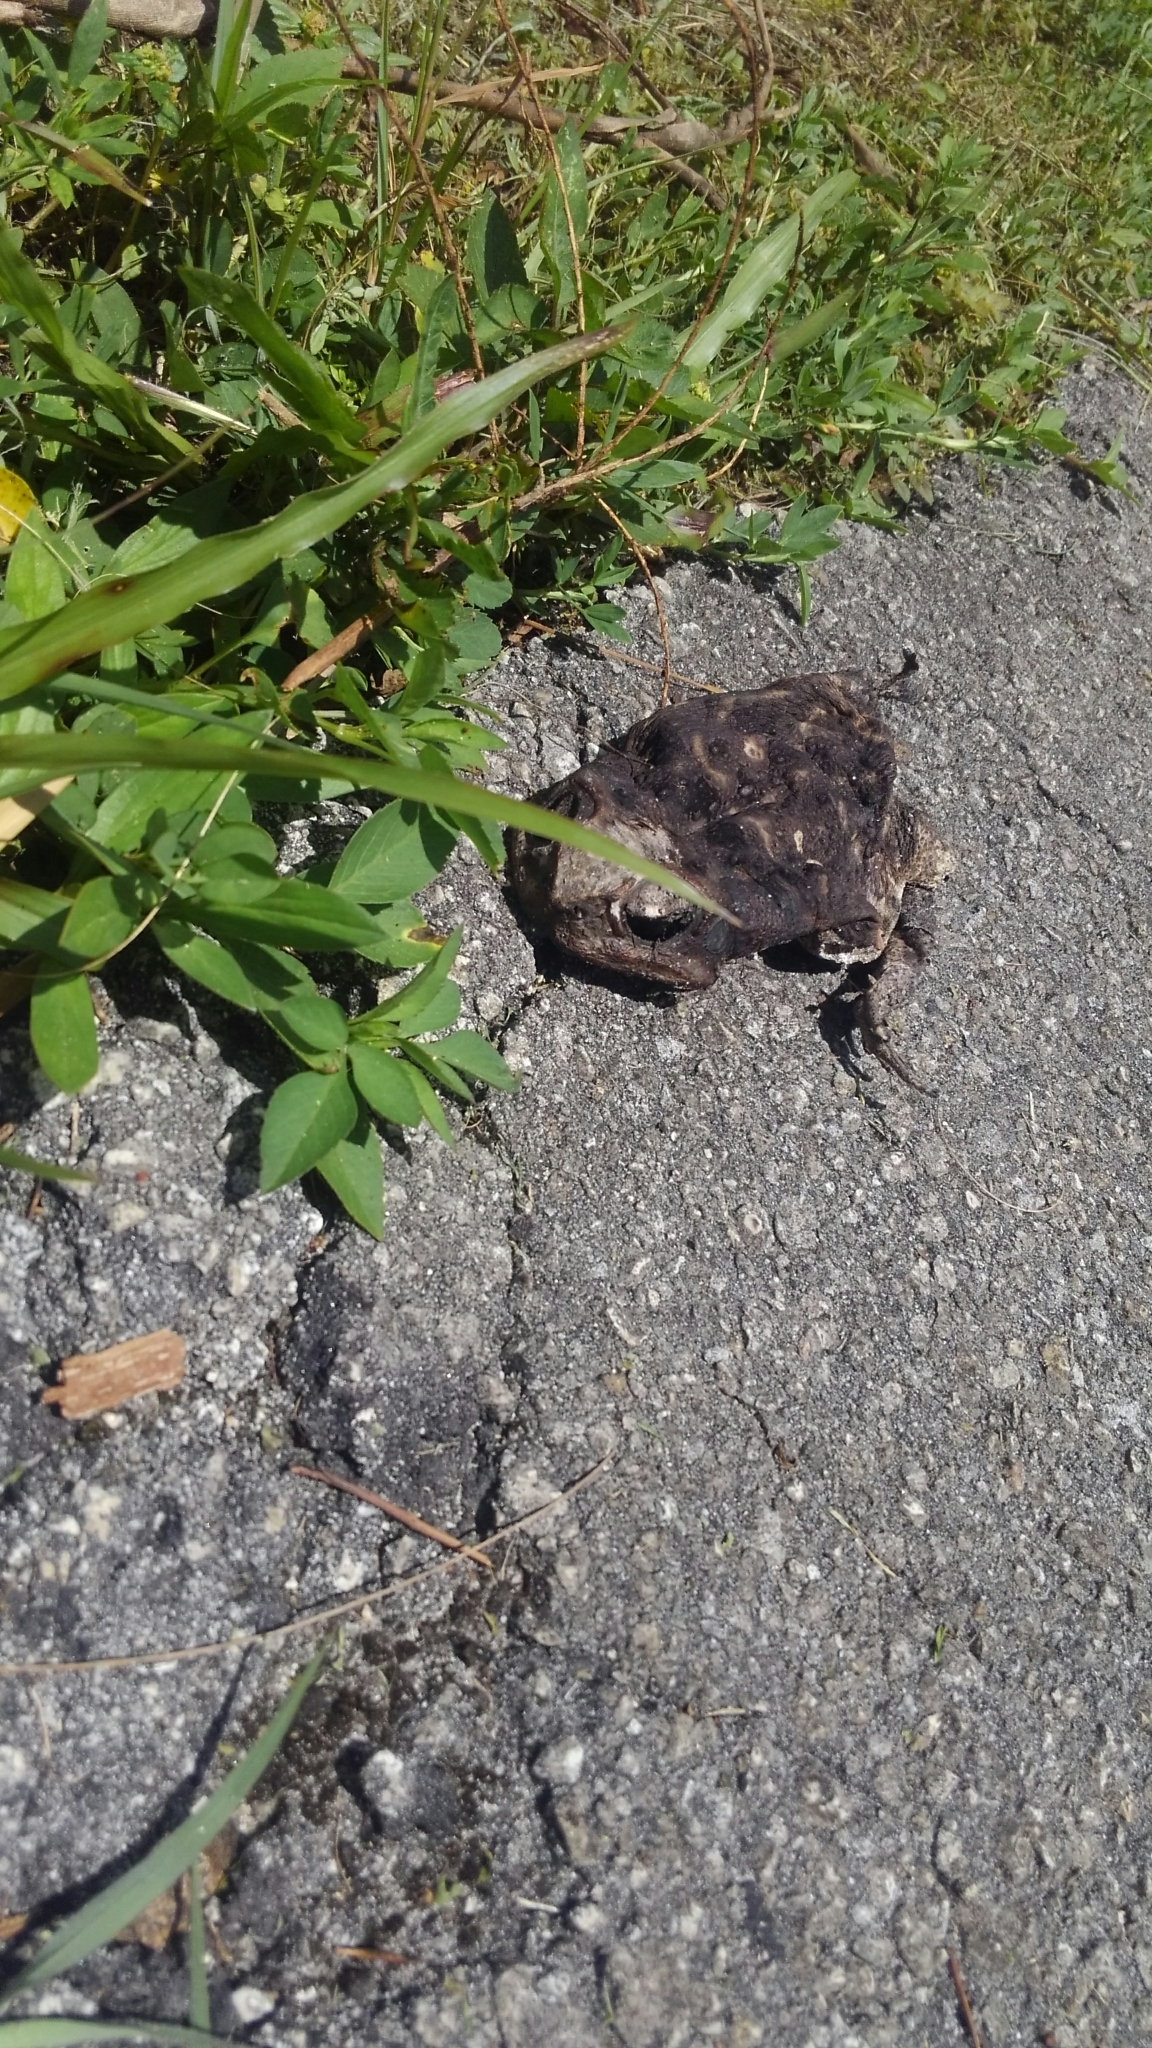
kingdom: Animalia
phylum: Chordata
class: Amphibia
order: Anura
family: Bufonidae
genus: Rhinella
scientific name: Rhinella marina
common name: Cane toad
